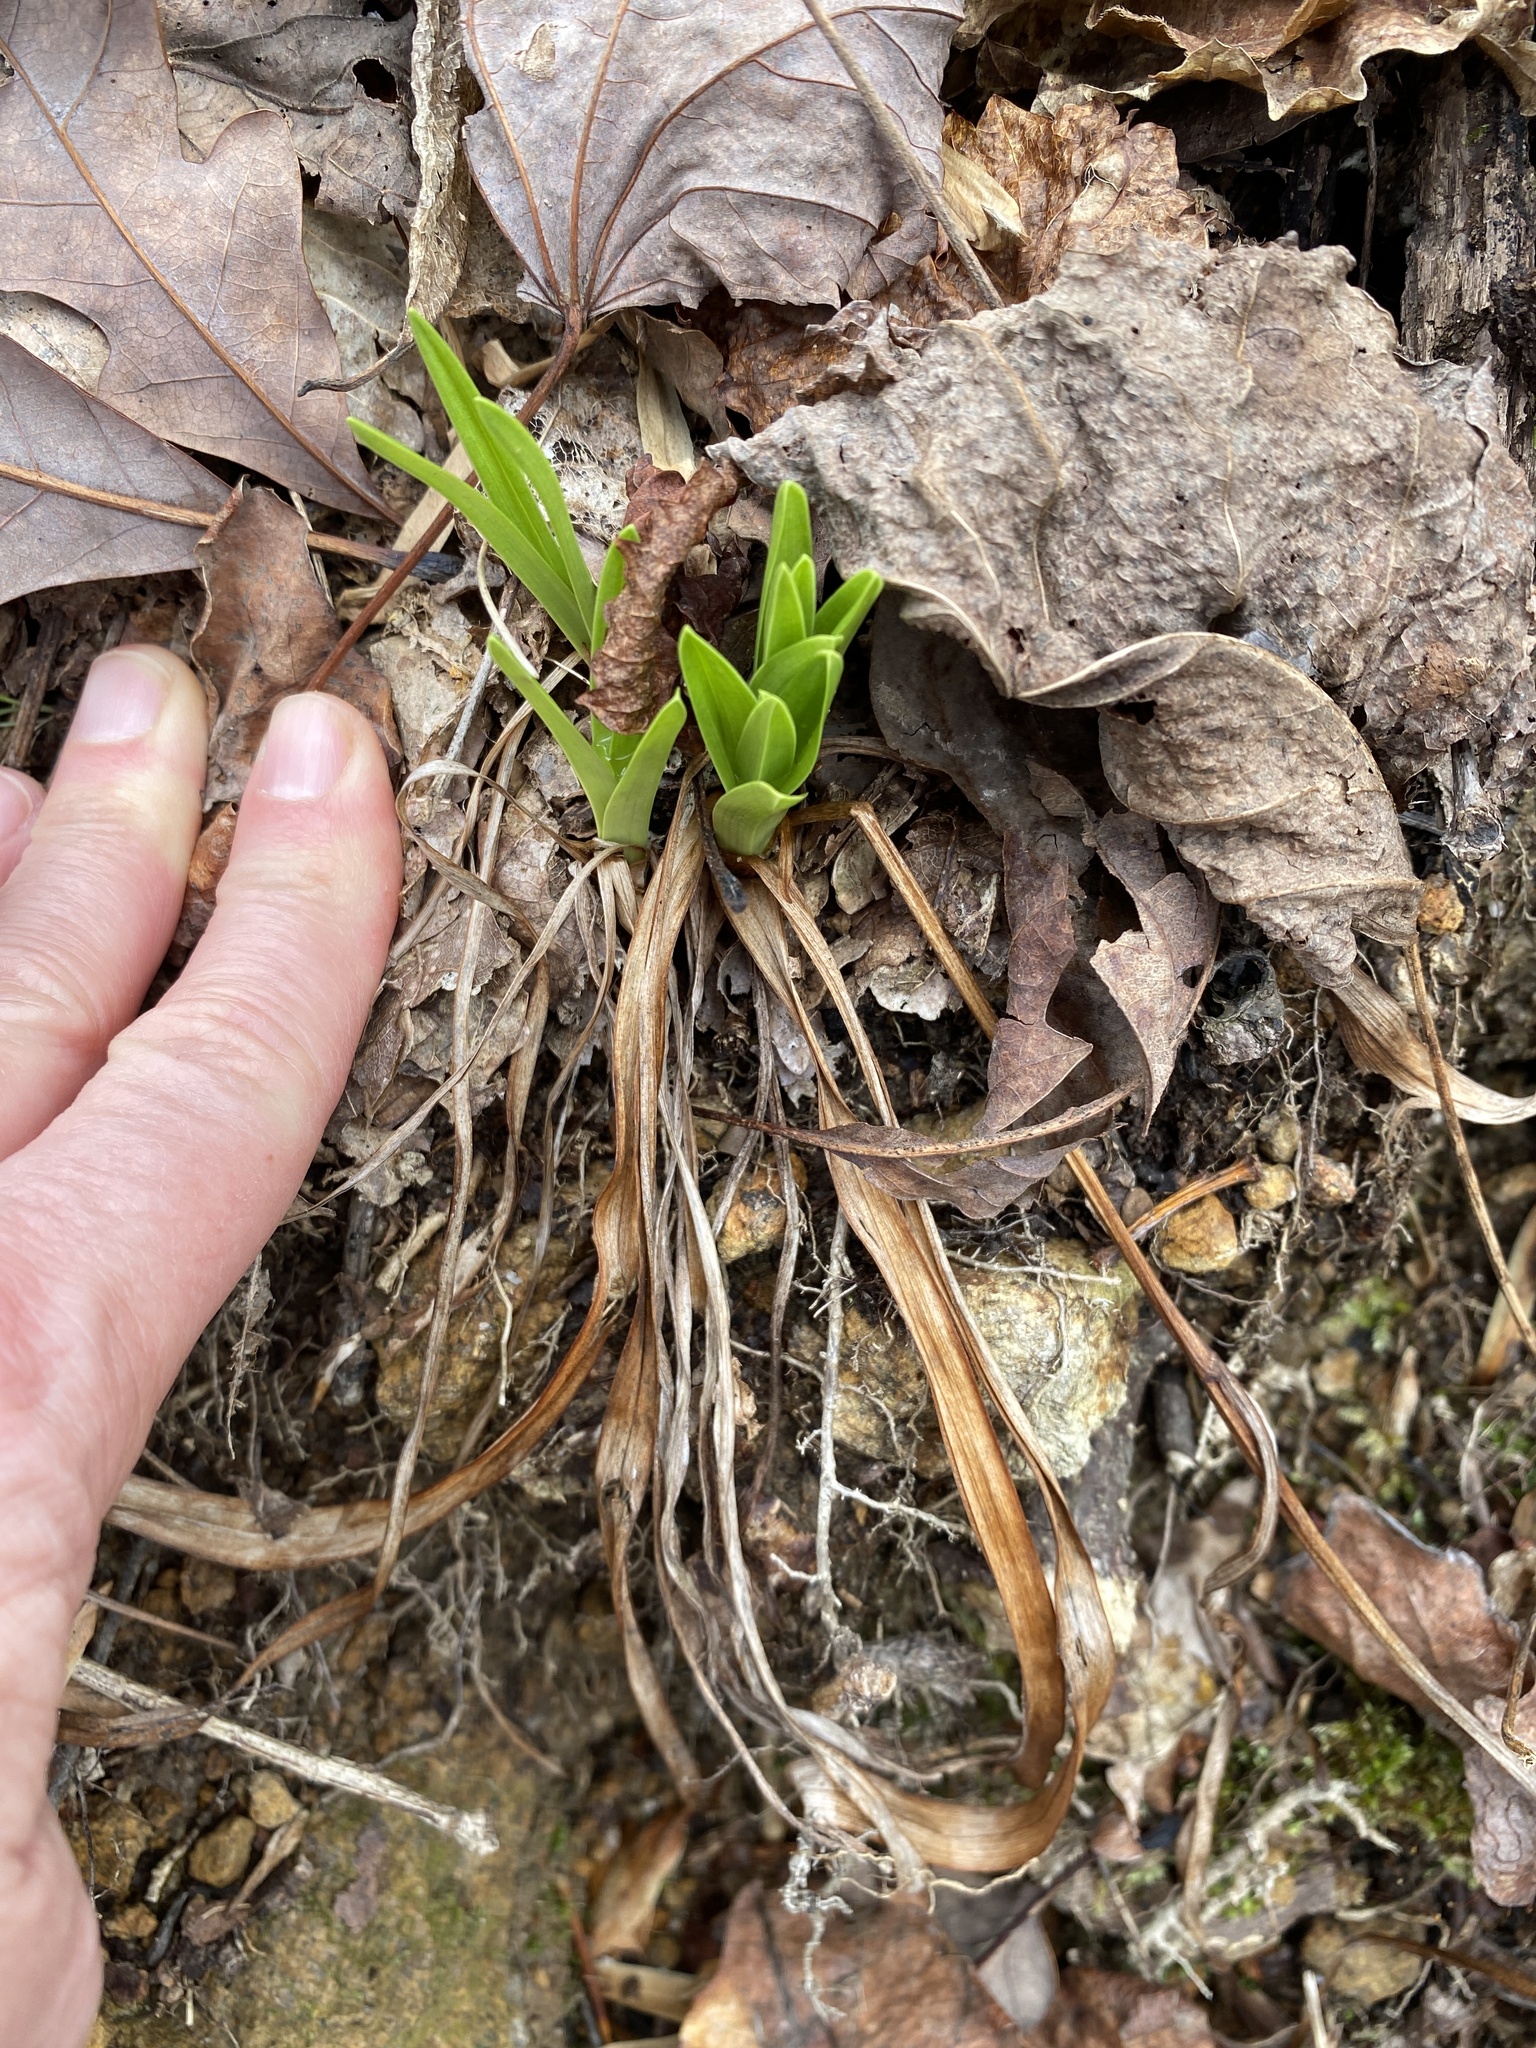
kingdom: Plantae
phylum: Tracheophyta
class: Liliopsida
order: Liliales
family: Melanthiaceae
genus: Amianthium
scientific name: Amianthium muscitoxicum
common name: Fly-poison
